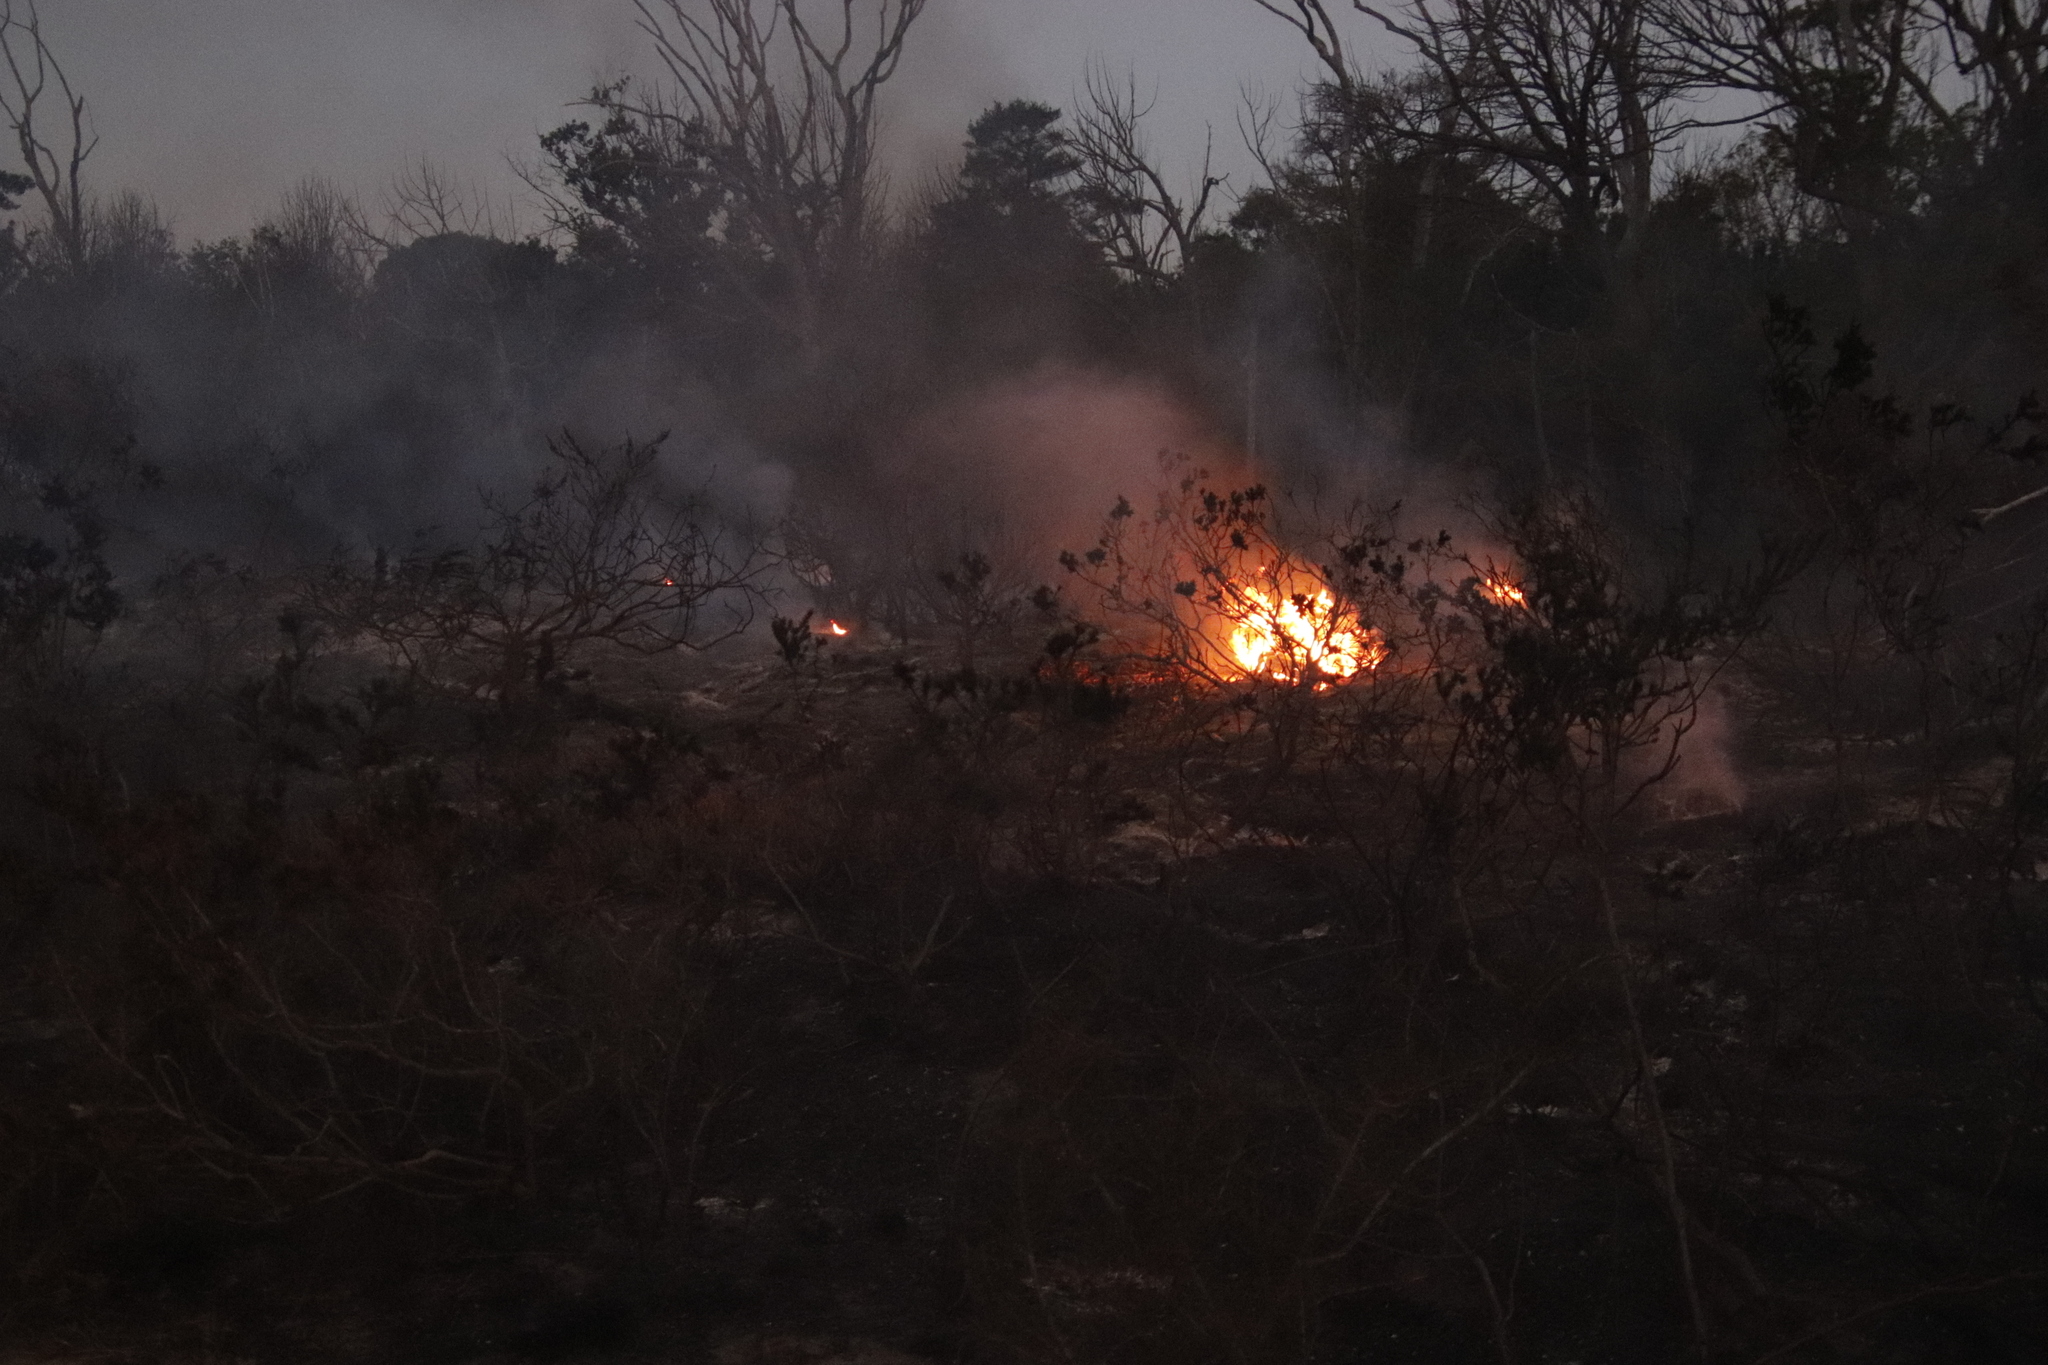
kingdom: Plantae
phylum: Tracheophyta
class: Pinopsida
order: Pinales
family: Pinaceae
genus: Pinus
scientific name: Pinus radiata
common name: Monterey pine
